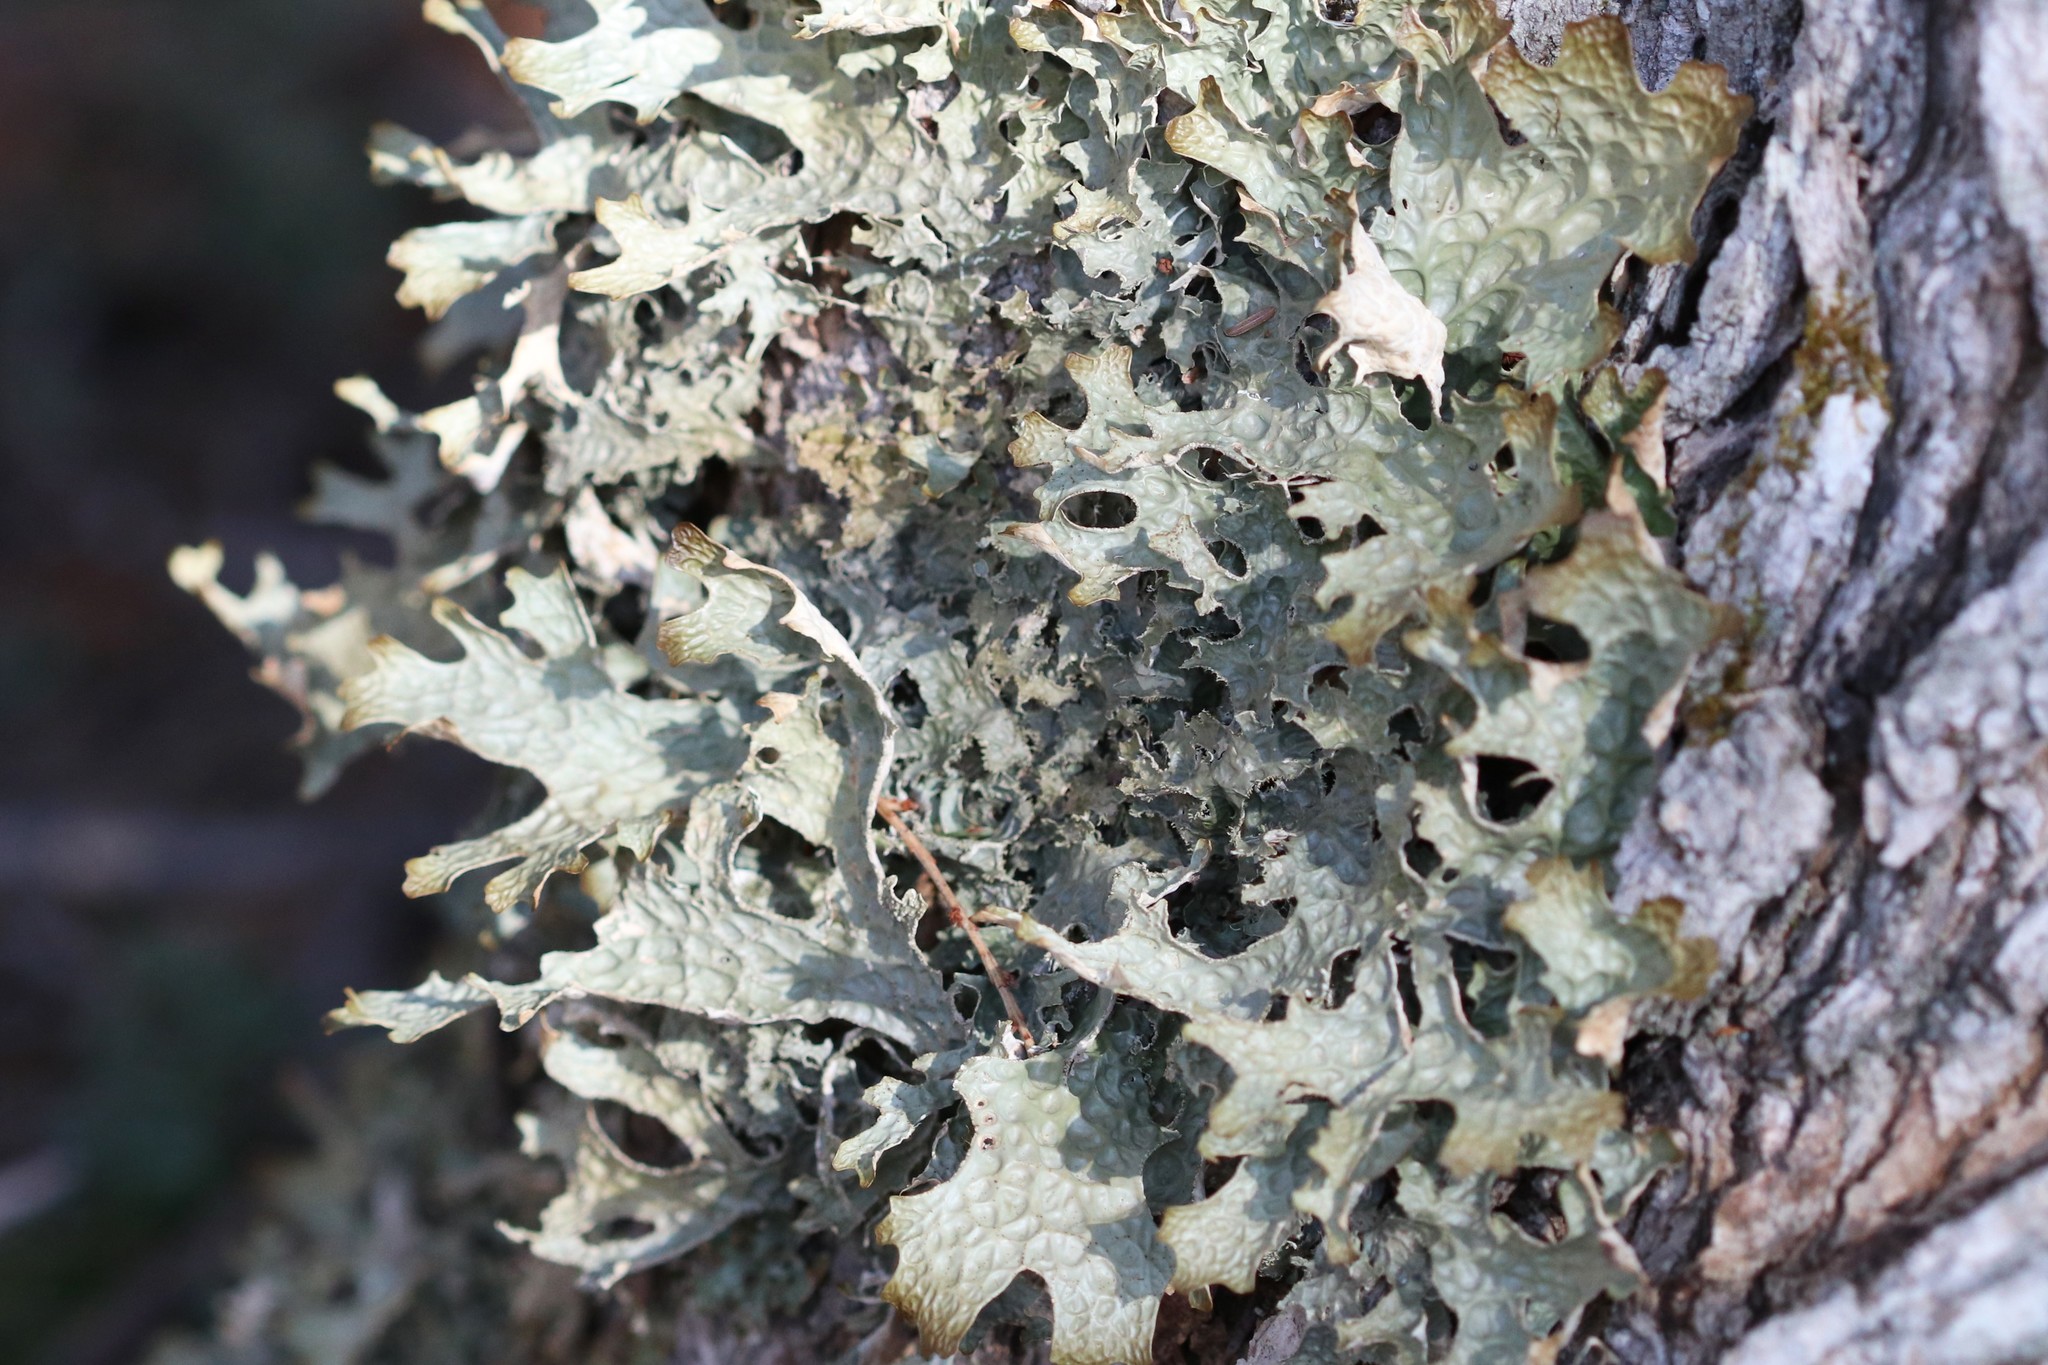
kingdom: Fungi
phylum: Ascomycota
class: Lecanoromycetes
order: Peltigerales
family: Lobariaceae
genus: Lobaria
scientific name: Lobaria pulmonaria
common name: Lungwort
